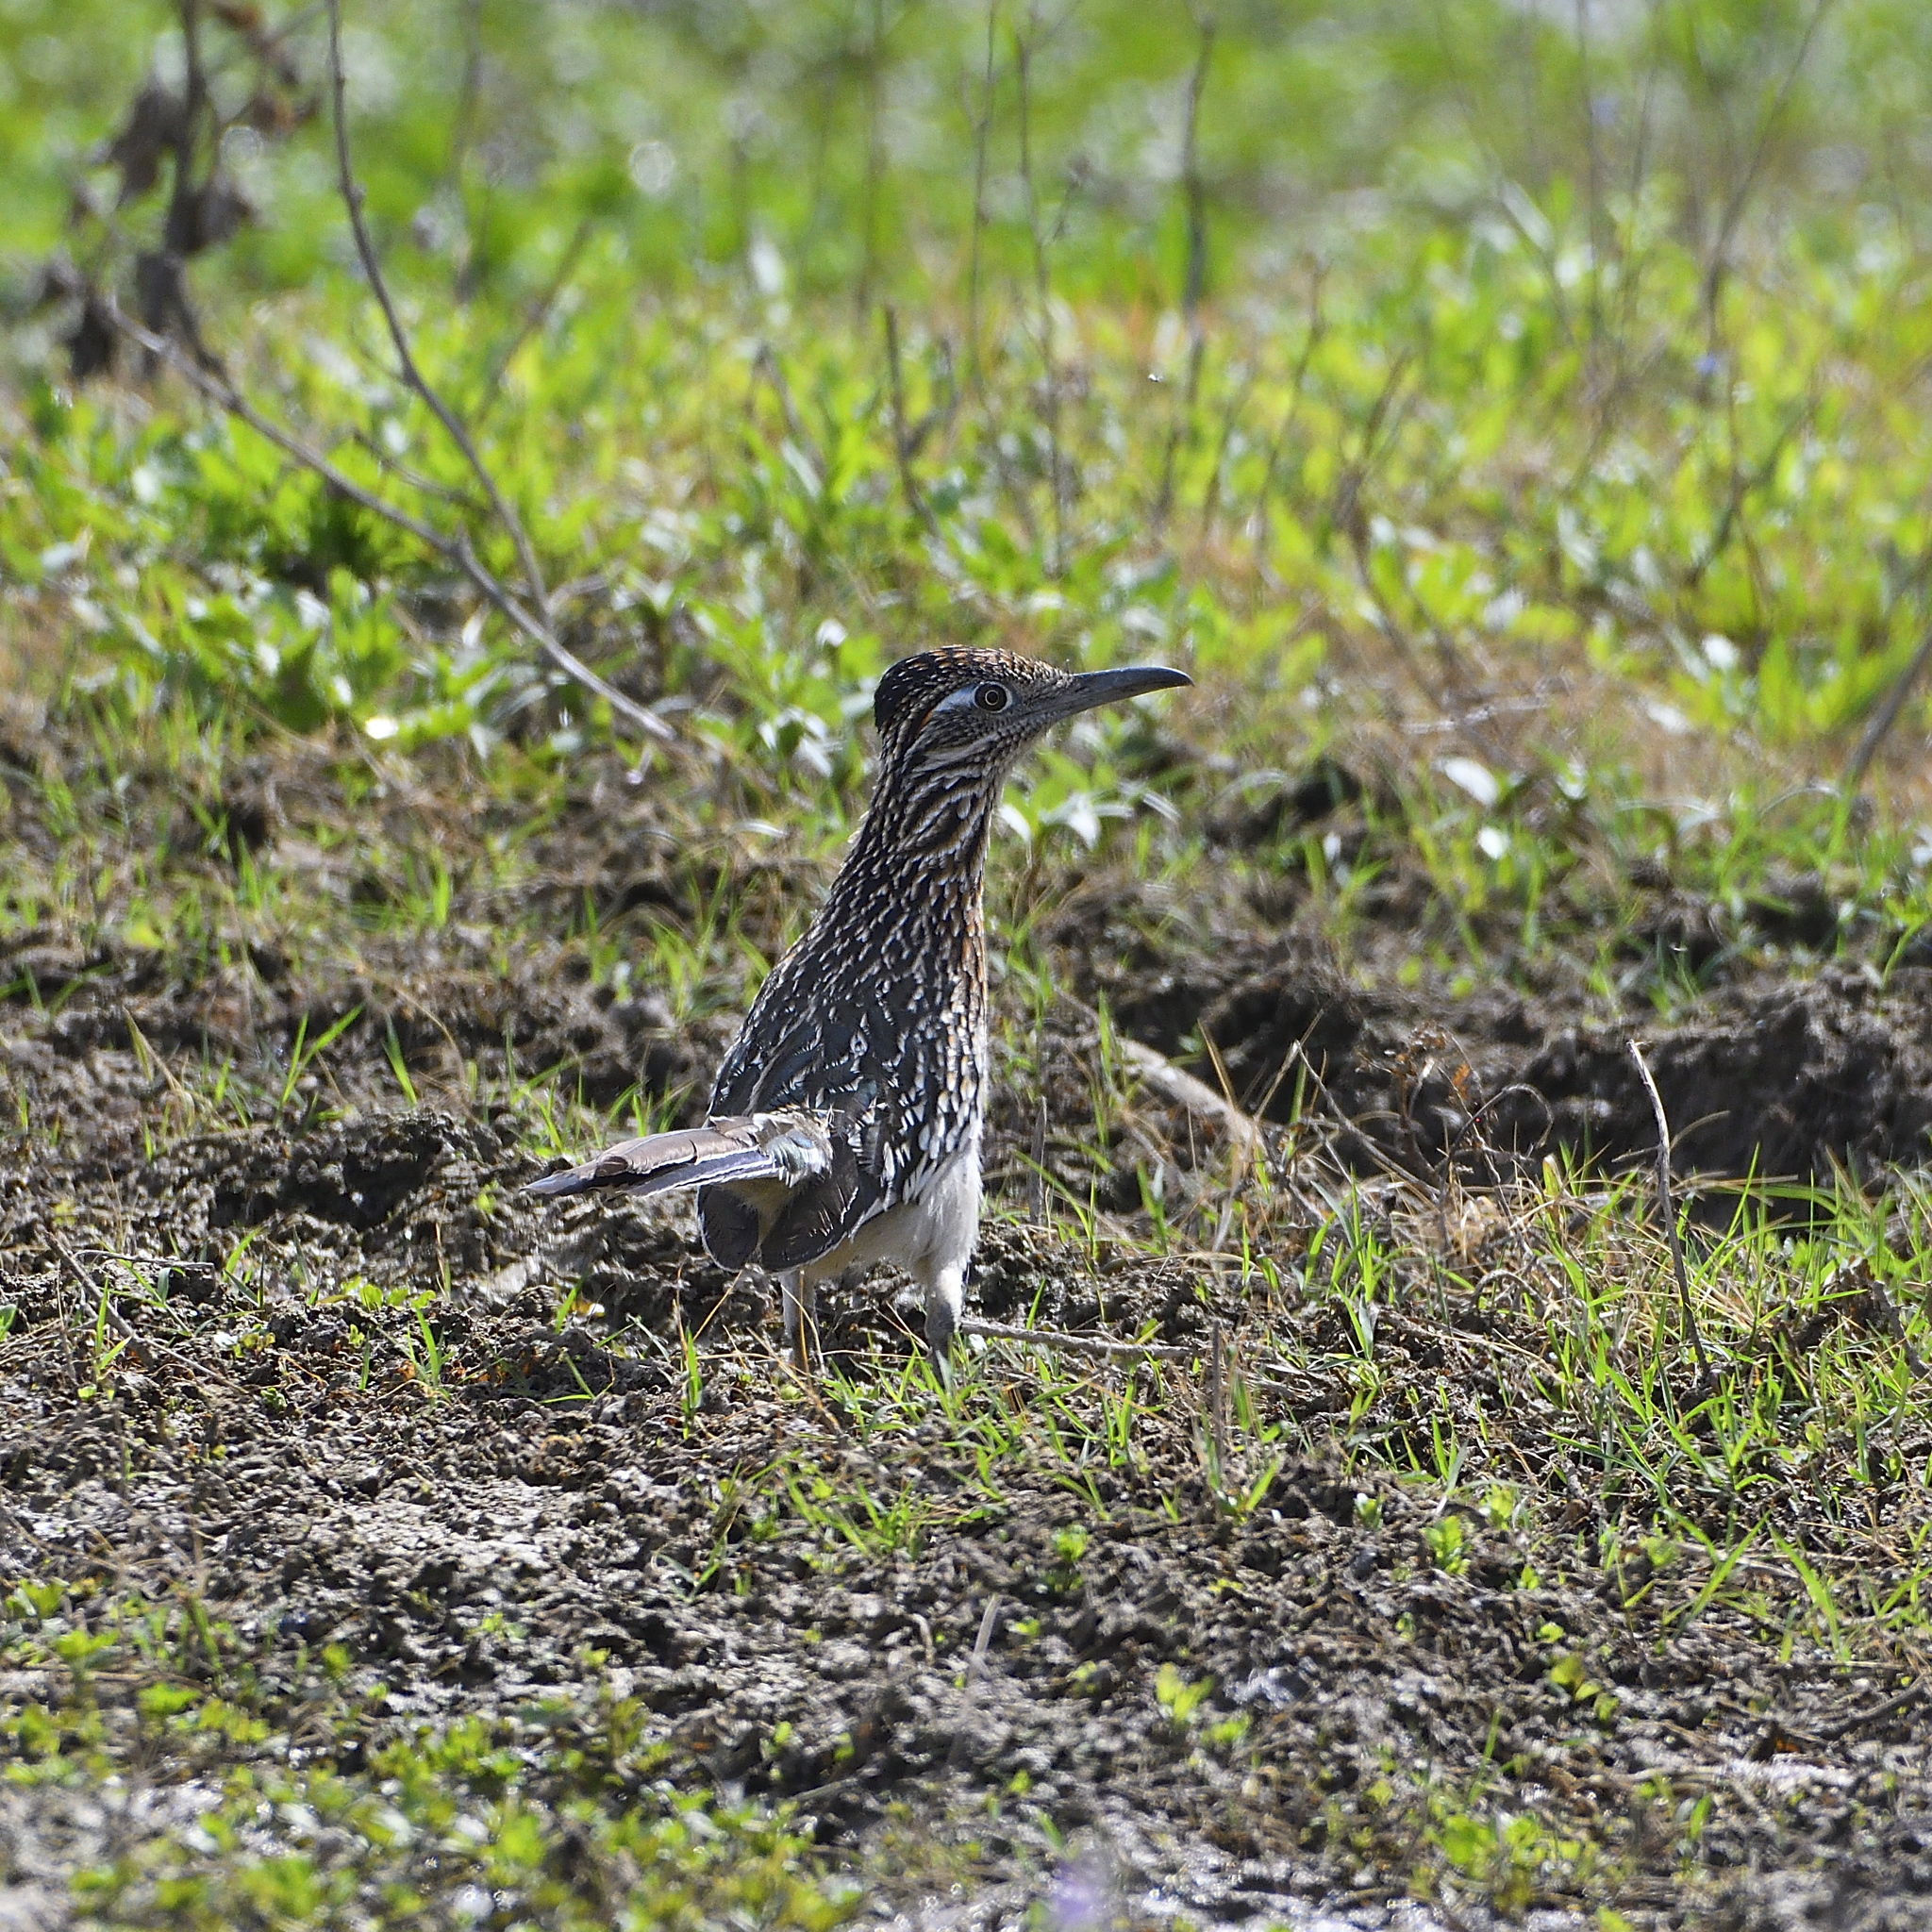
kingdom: Animalia
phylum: Chordata
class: Aves
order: Cuculiformes
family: Cuculidae
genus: Geococcyx
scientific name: Geococcyx californianus
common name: Greater roadrunner
